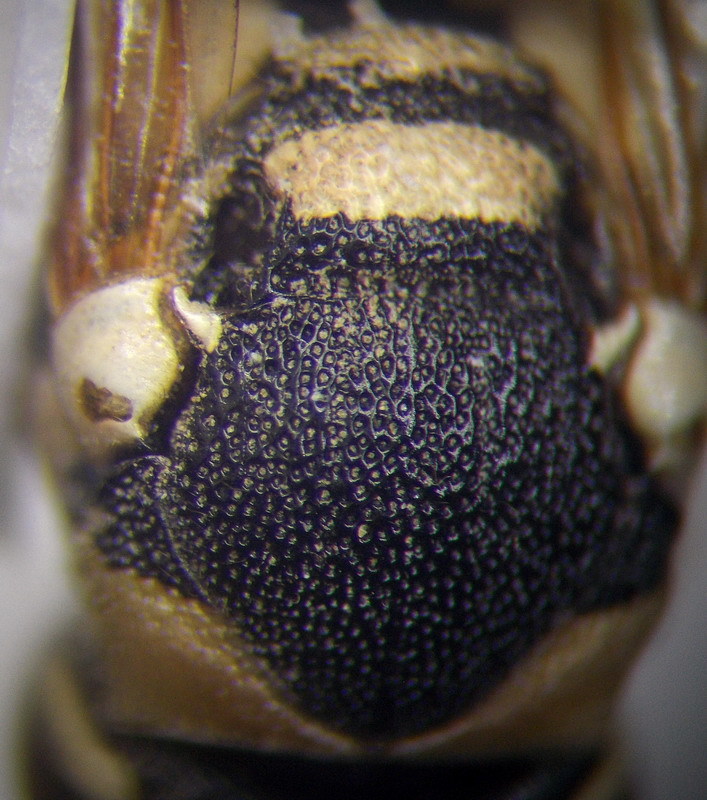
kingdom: Animalia
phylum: Arthropoda
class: Insecta
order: Hymenoptera
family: Vespidae
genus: Pseudepipona
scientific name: Pseudepipona beckeri
